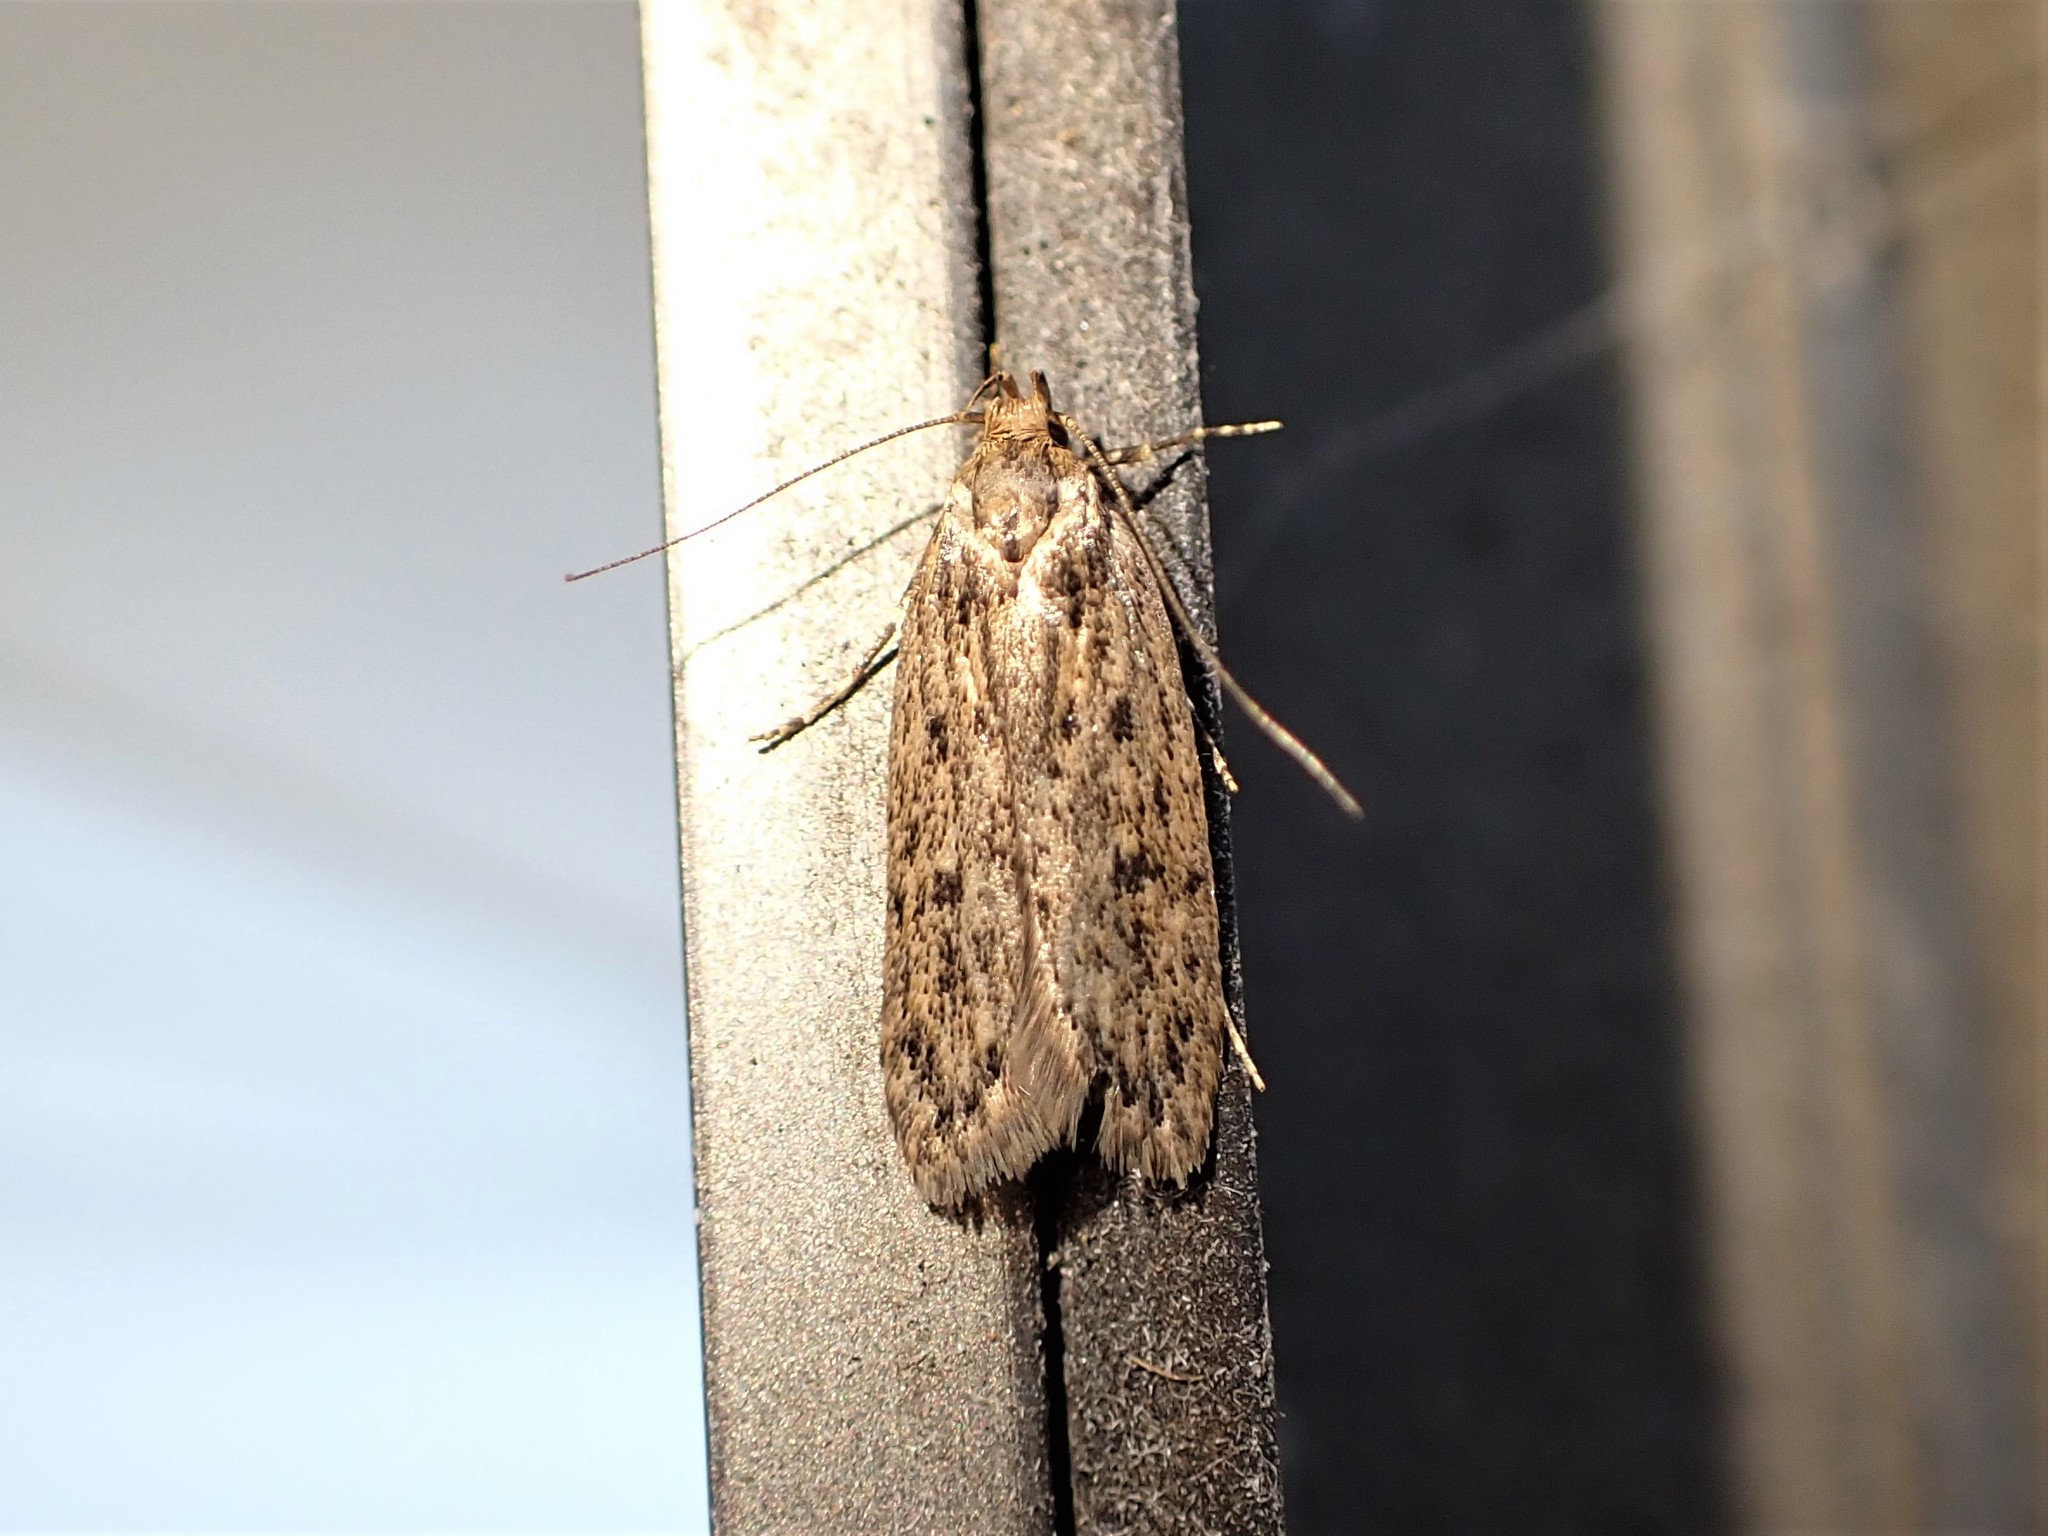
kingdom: Animalia
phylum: Arthropoda
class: Insecta
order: Lepidoptera
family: Oecophoridae
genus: Hofmannophila
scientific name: Hofmannophila pseudospretella
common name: Brown house moth
